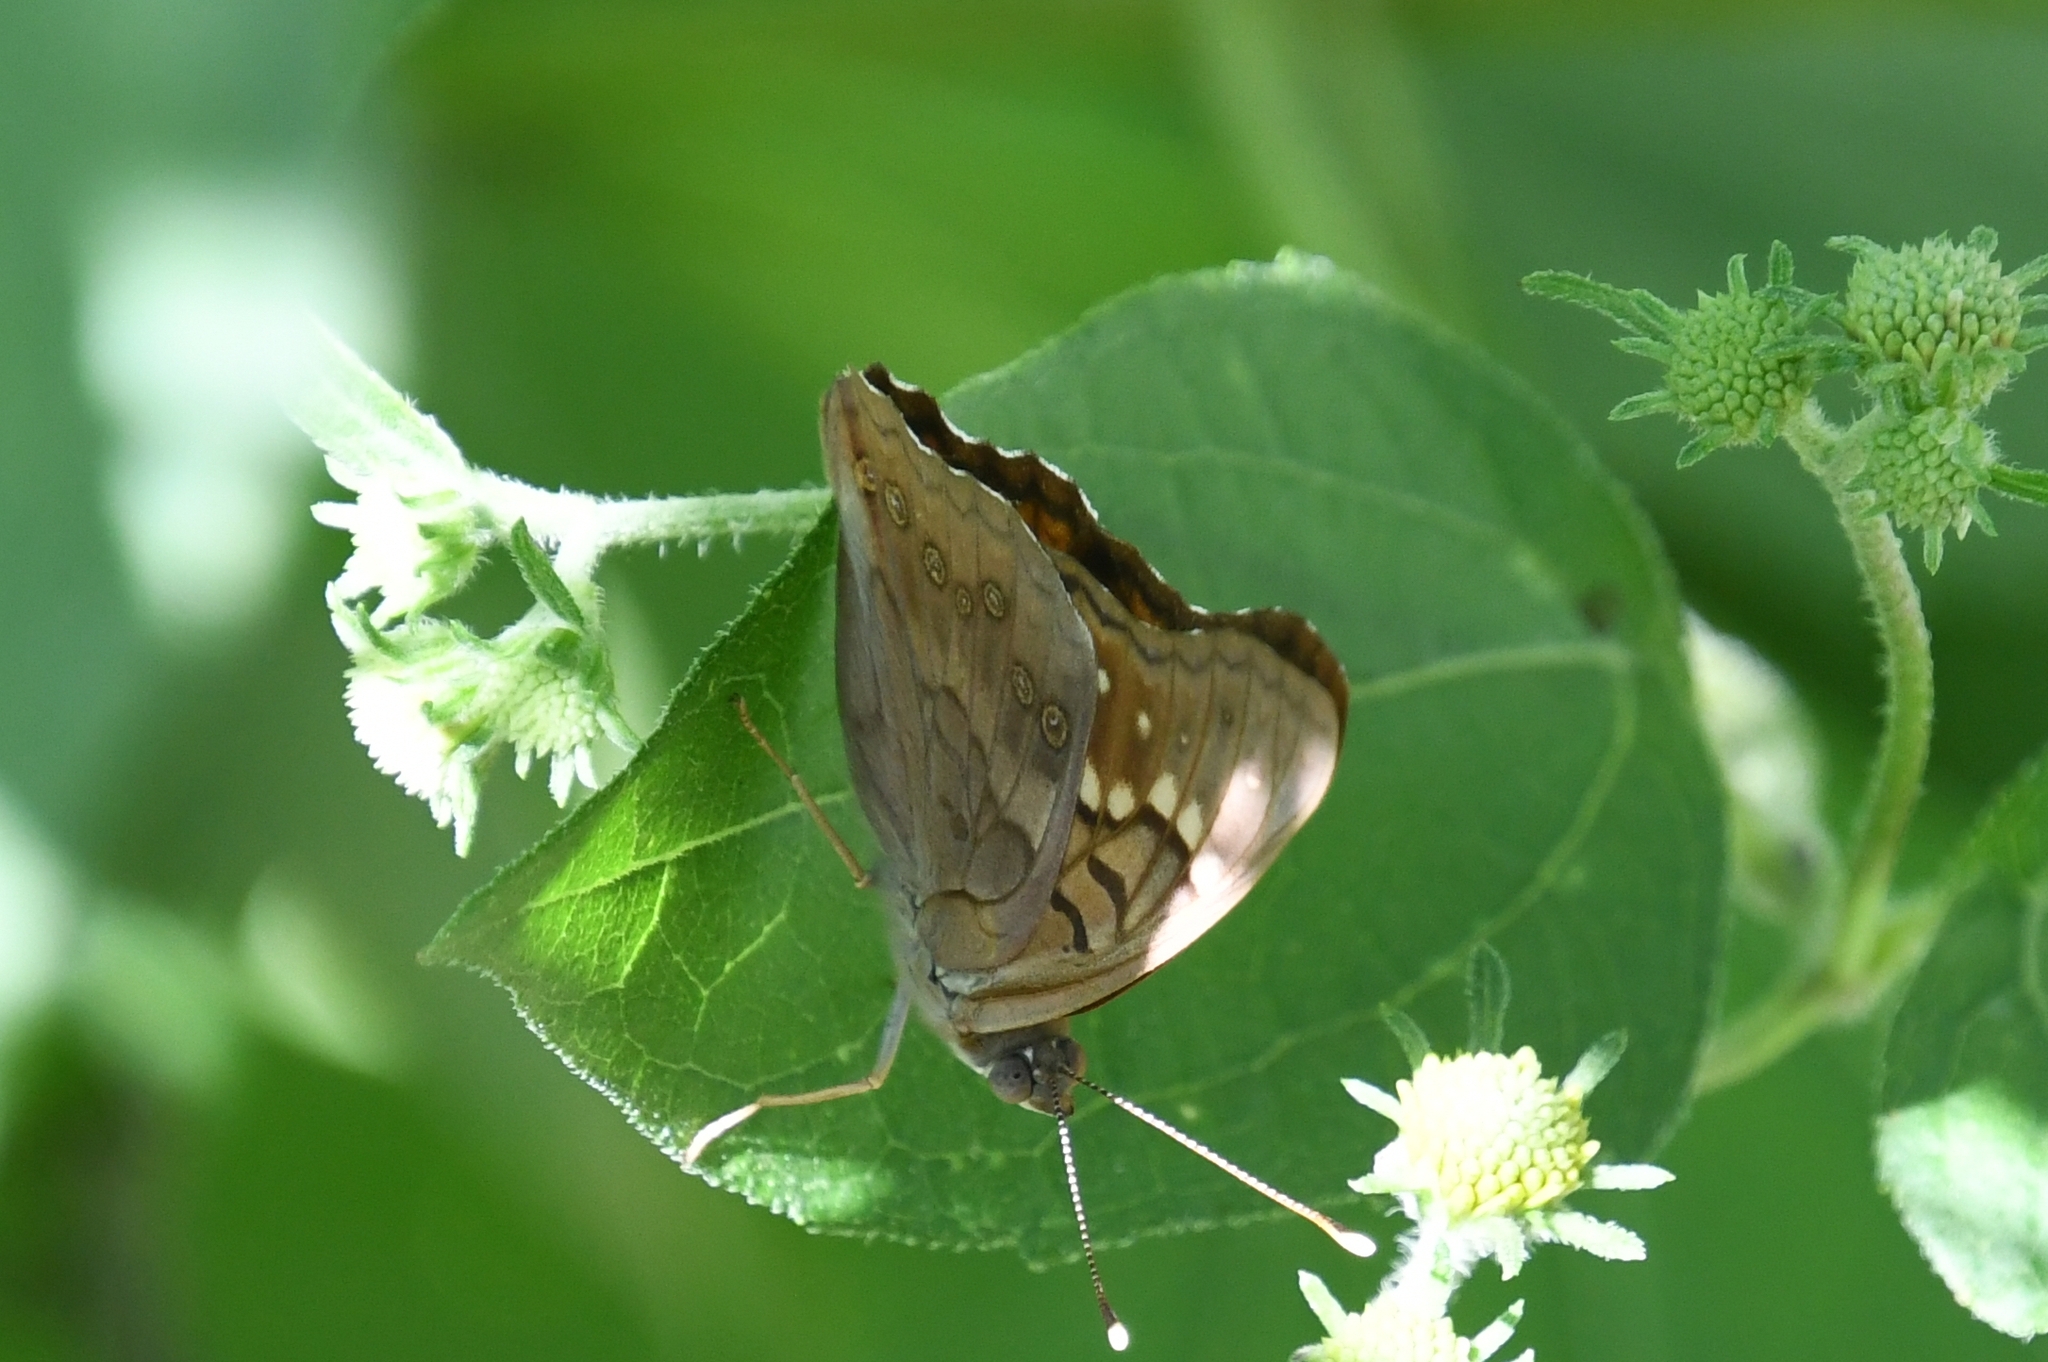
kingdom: Animalia
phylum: Arthropoda
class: Insecta
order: Lepidoptera
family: Nymphalidae
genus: Asterocampa
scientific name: Asterocampa clyton
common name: Tawny emperor
